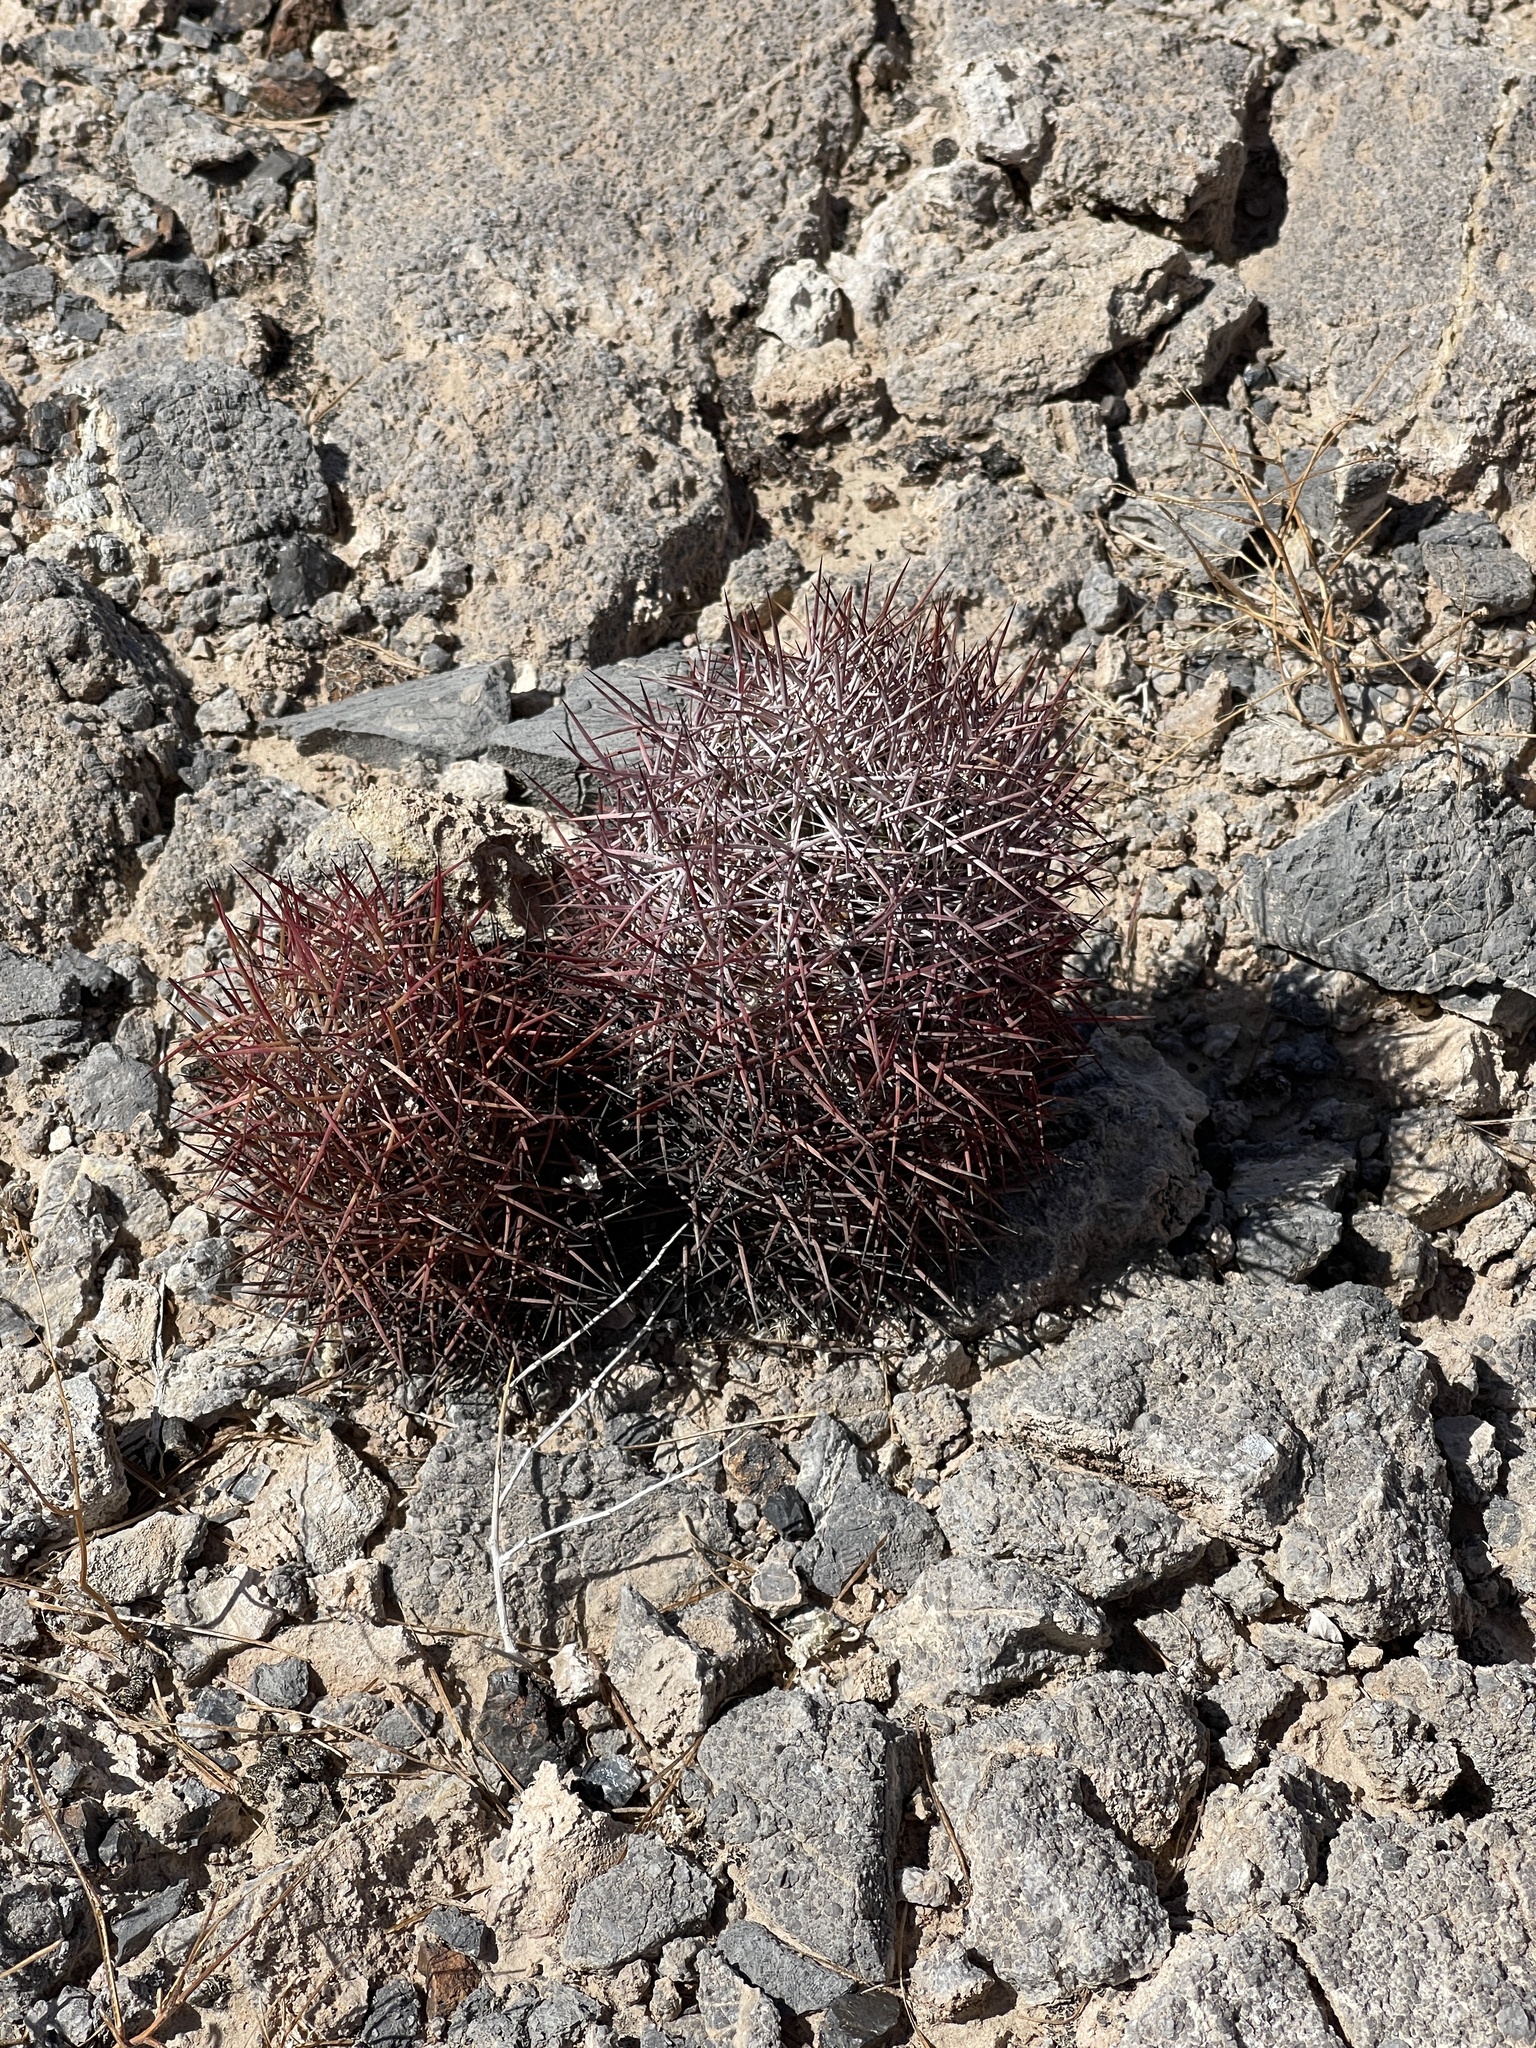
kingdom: Plantae
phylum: Tracheophyta
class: Magnoliopsida
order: Caryophyllales
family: Cactaceae
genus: Sclerocactus
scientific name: Sclerocactus johnsonii
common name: Eight-spine fishhook cactus
